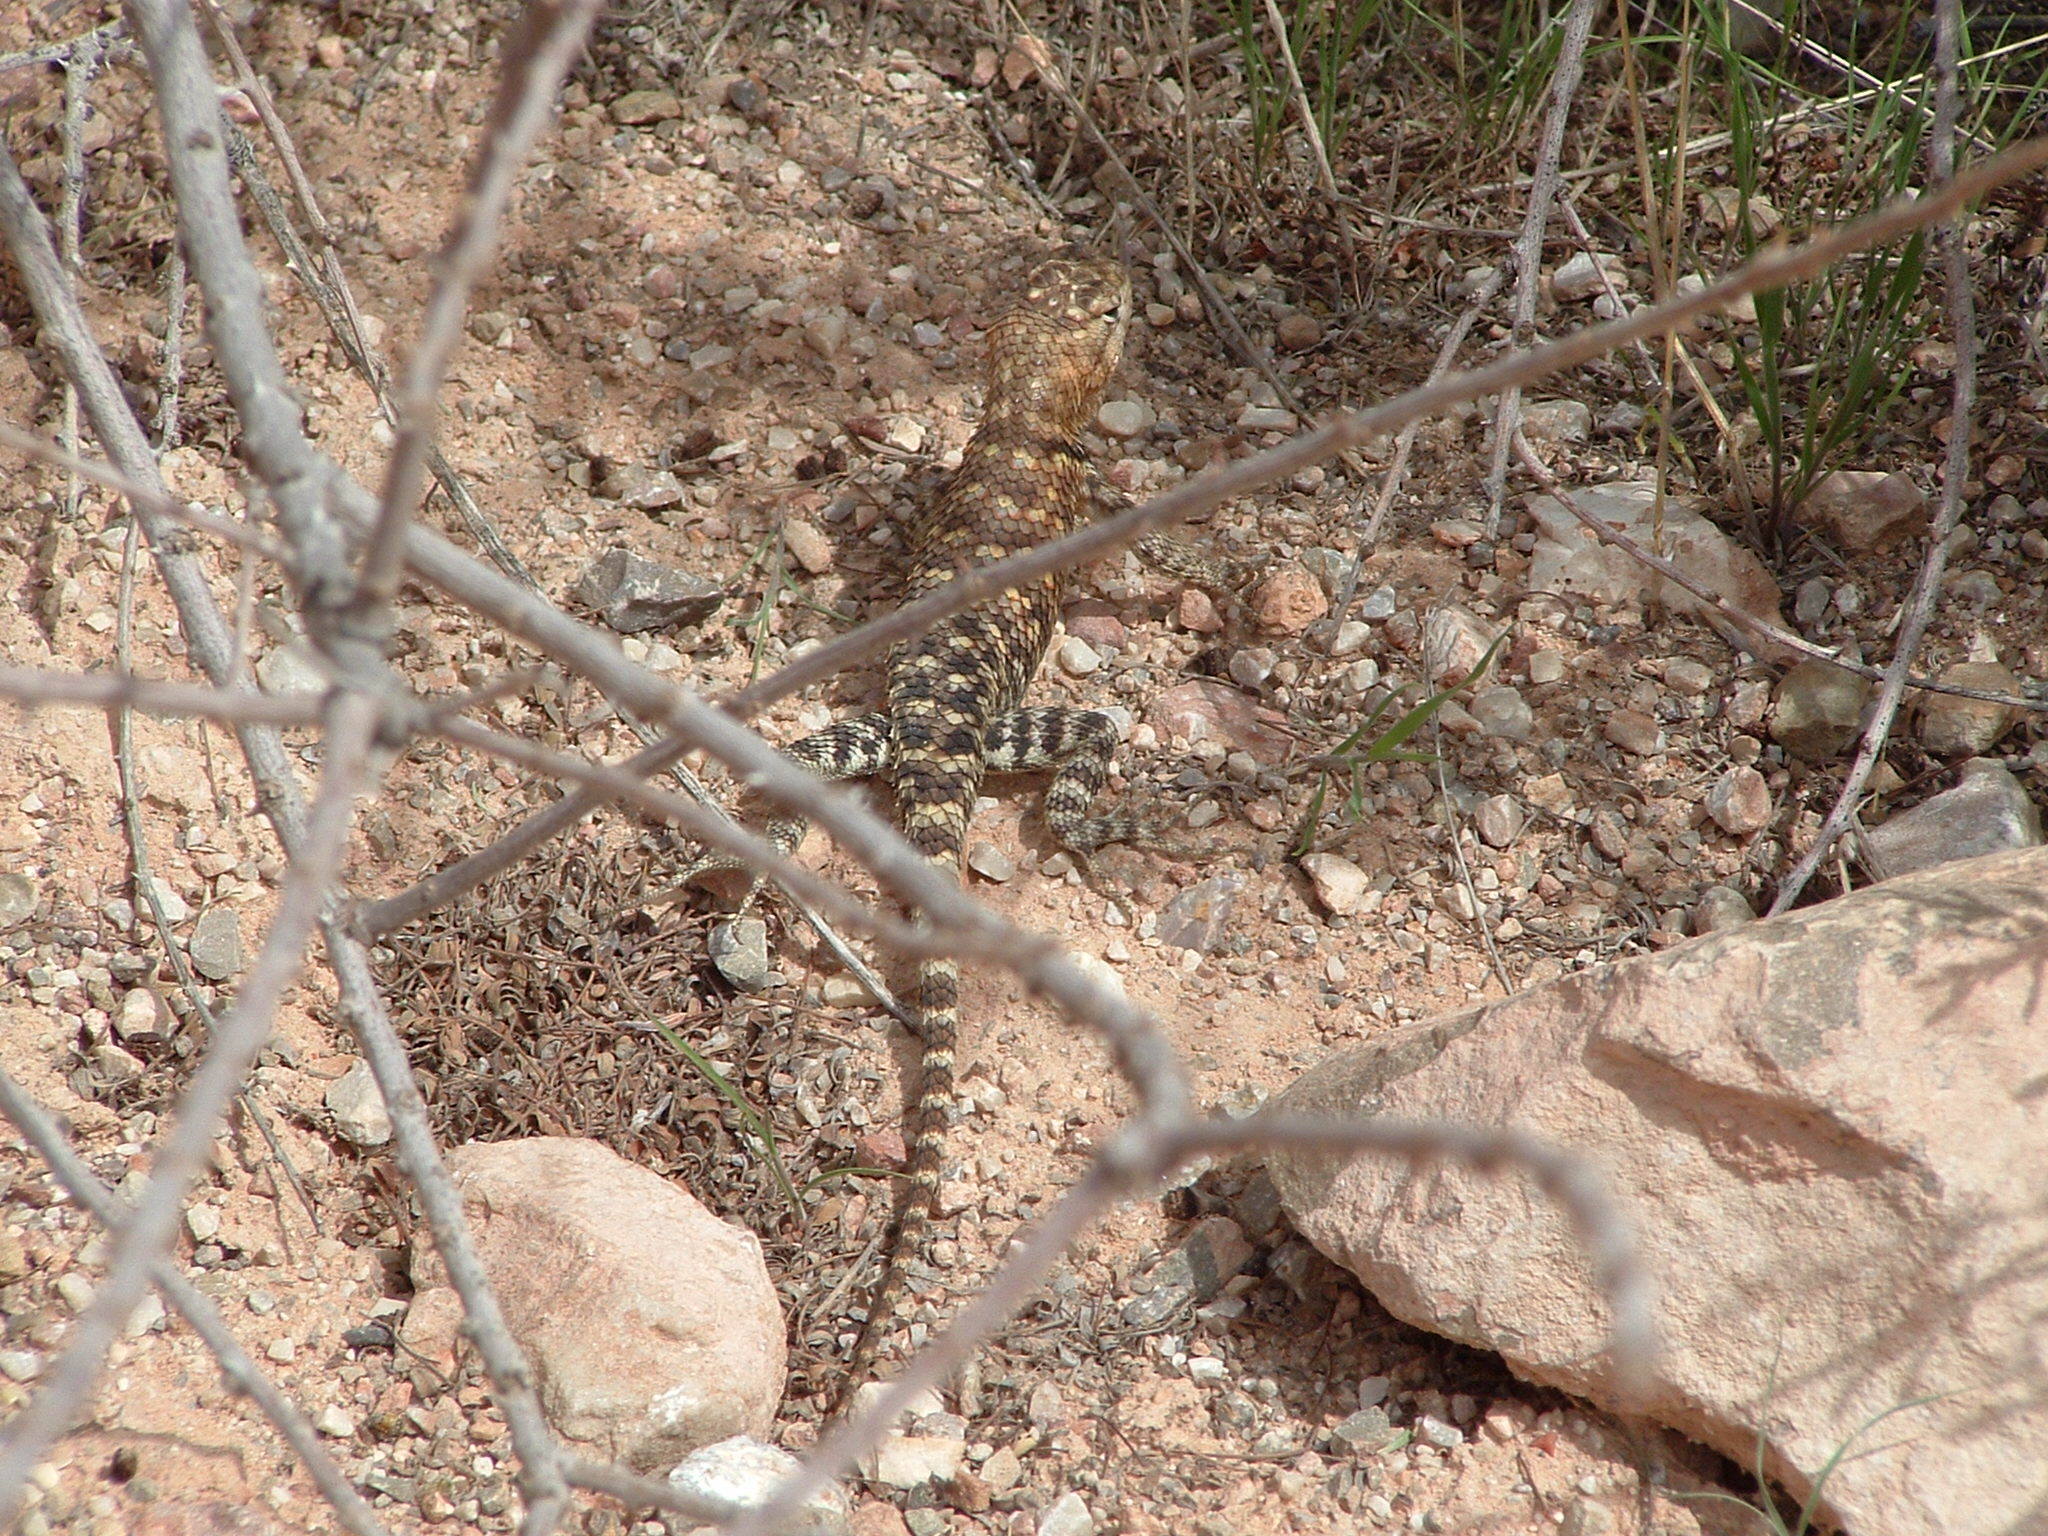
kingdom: Animalia
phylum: Chordata
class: Squamata
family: Phrynosomatidae
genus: Sceloporus
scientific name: Sceloporus magister
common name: Desert spiny lizard
